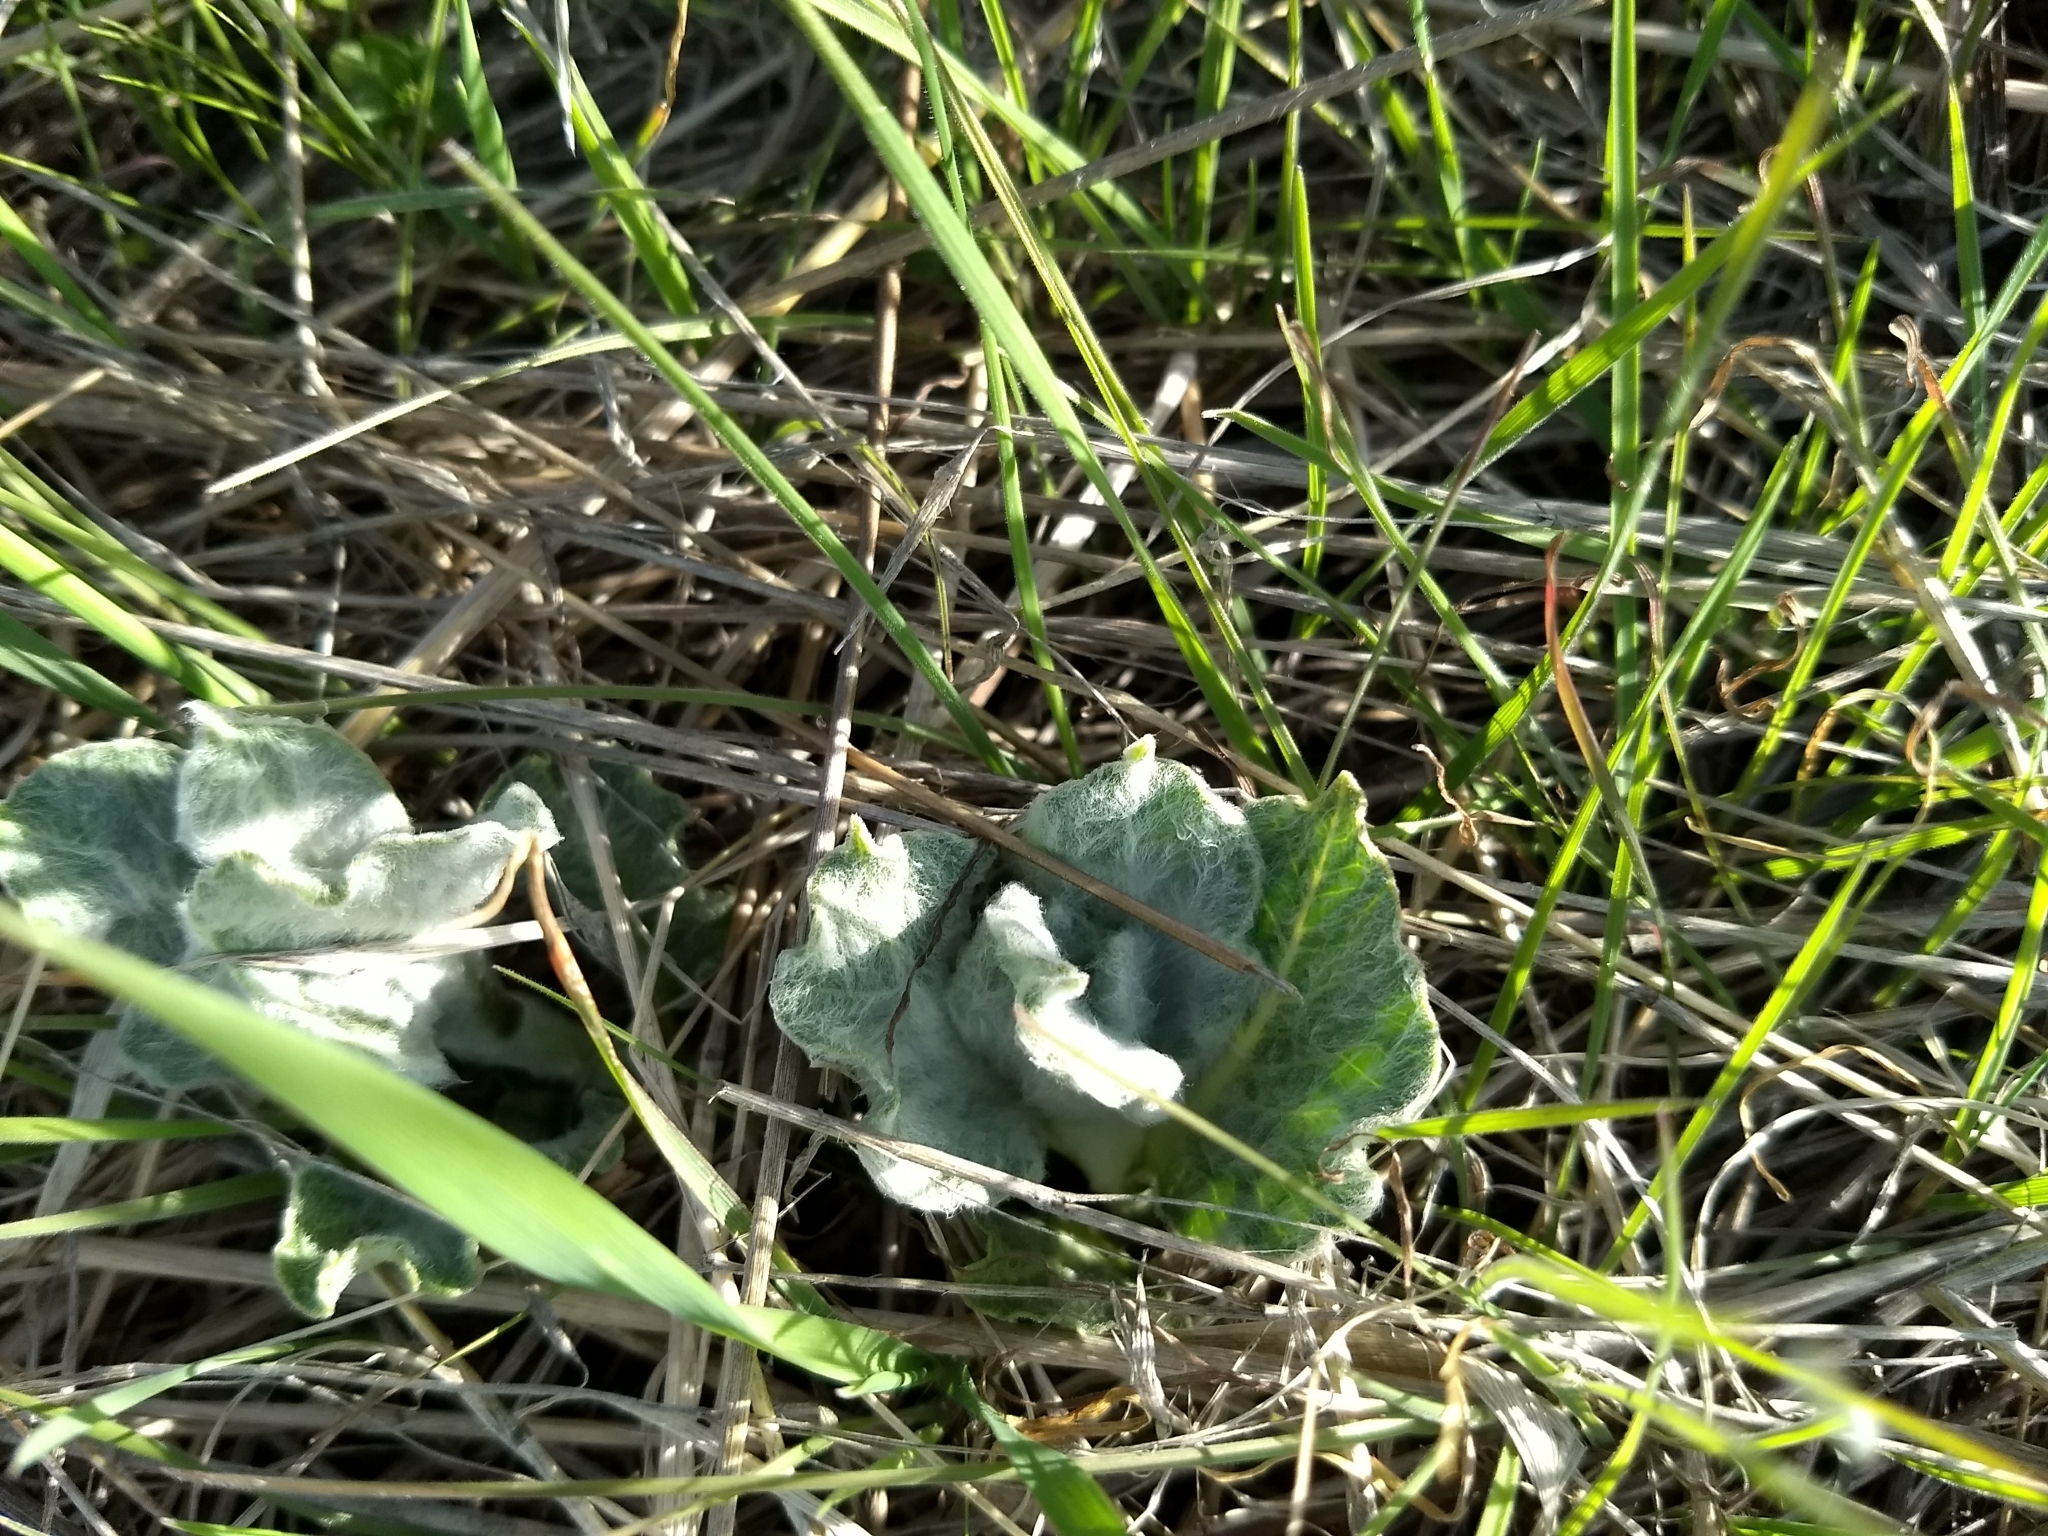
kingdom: Plantae
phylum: Tracheophyta
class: Magnoliopsida
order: Gentianales
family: Apocynaceae
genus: Asclepias
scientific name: Asclepias californica
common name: California milkweed
